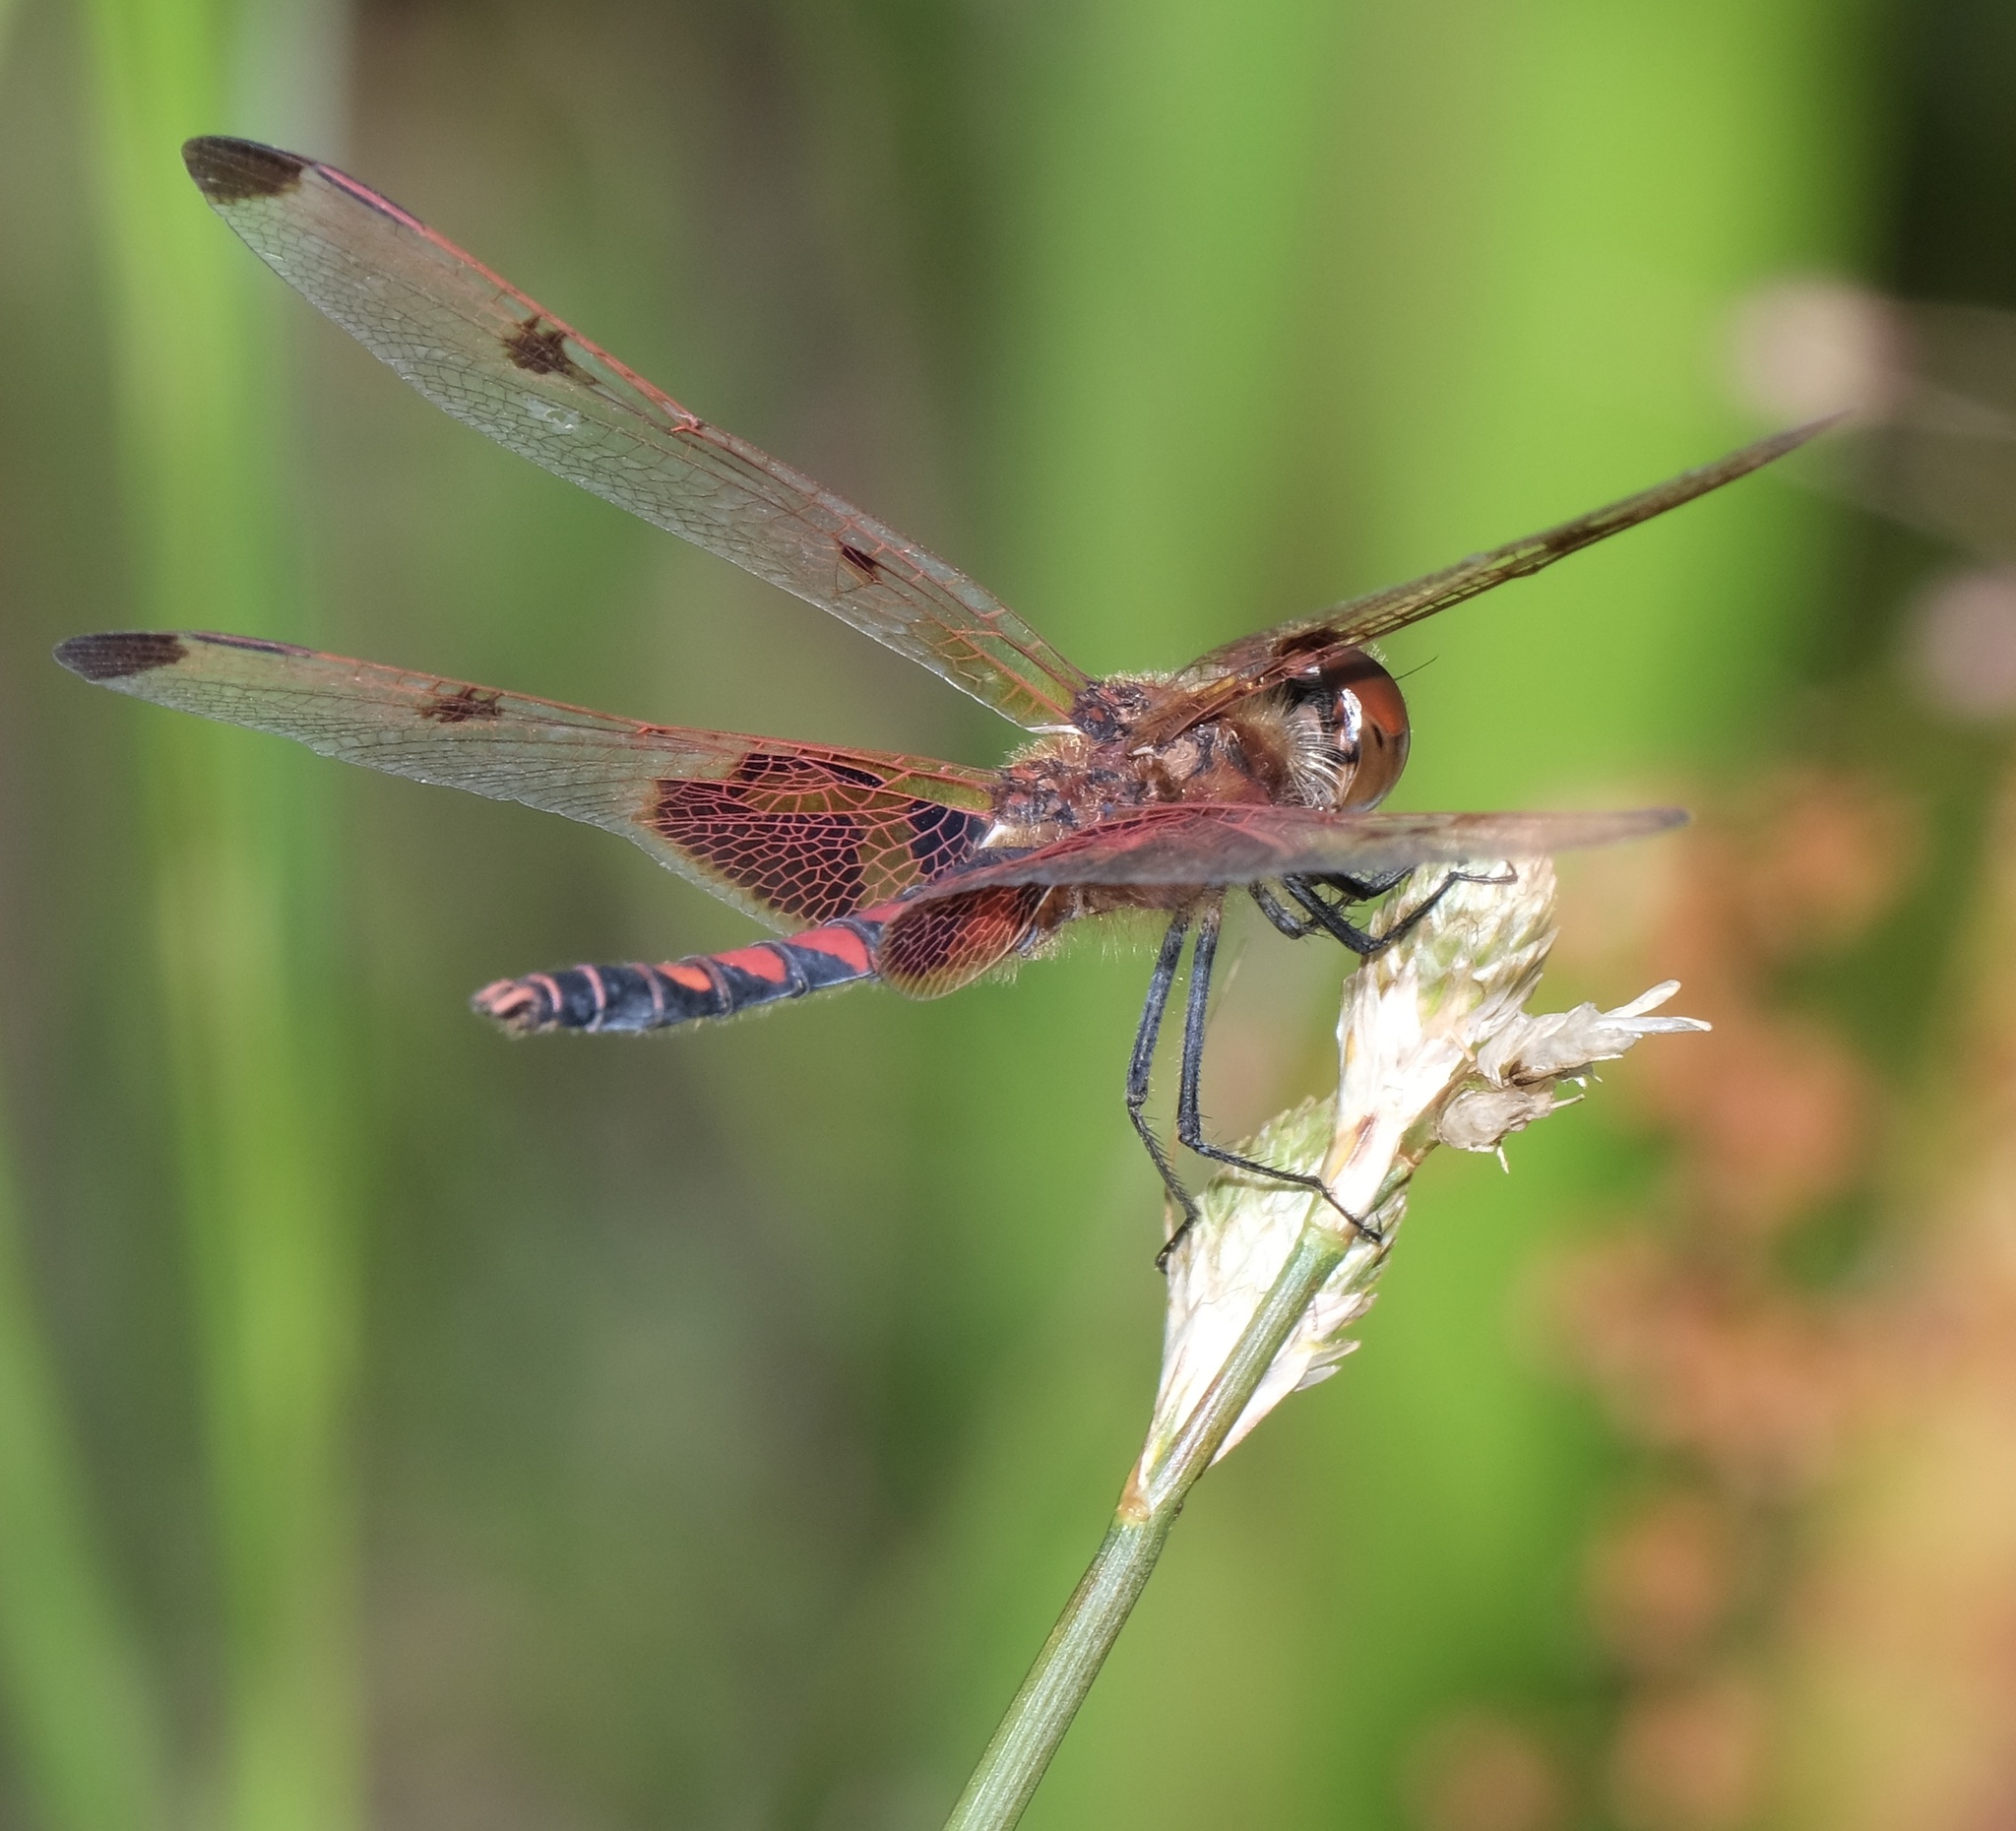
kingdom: Animalia
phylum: Arthropoda
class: Insecta
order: Odonata
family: Libellulidae
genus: Celithemis
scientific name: Celithemis elisa
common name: Calico pennant
